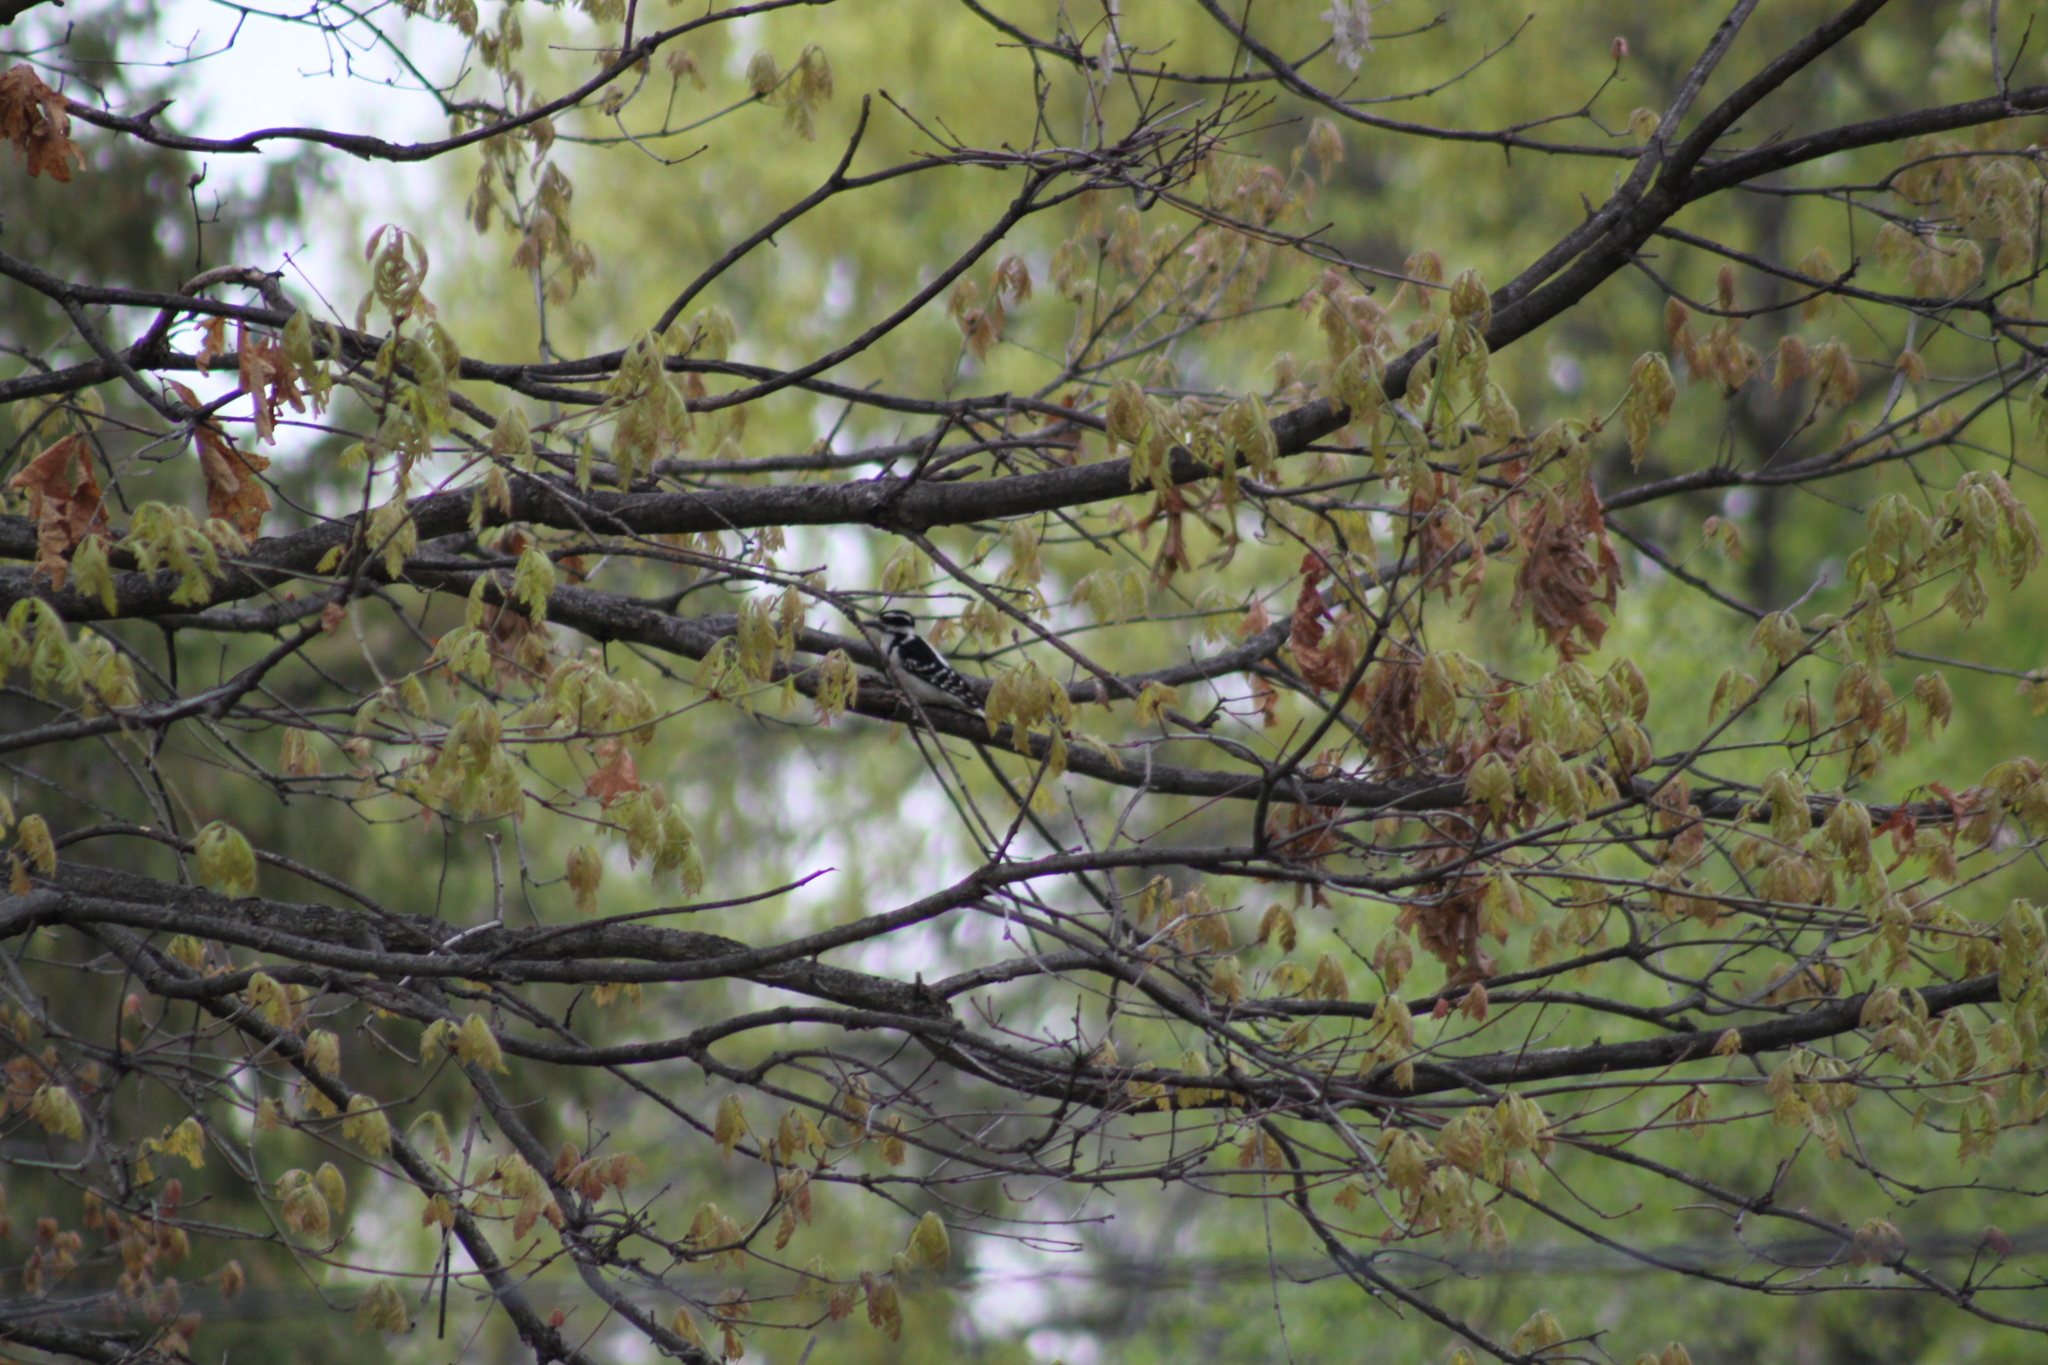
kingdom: Animalia
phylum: Chordata
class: Aves
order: Piciformes
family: Picidae
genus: Leuconotopicus
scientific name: Leuconotopicus villosus
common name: Hairy woodpecker
